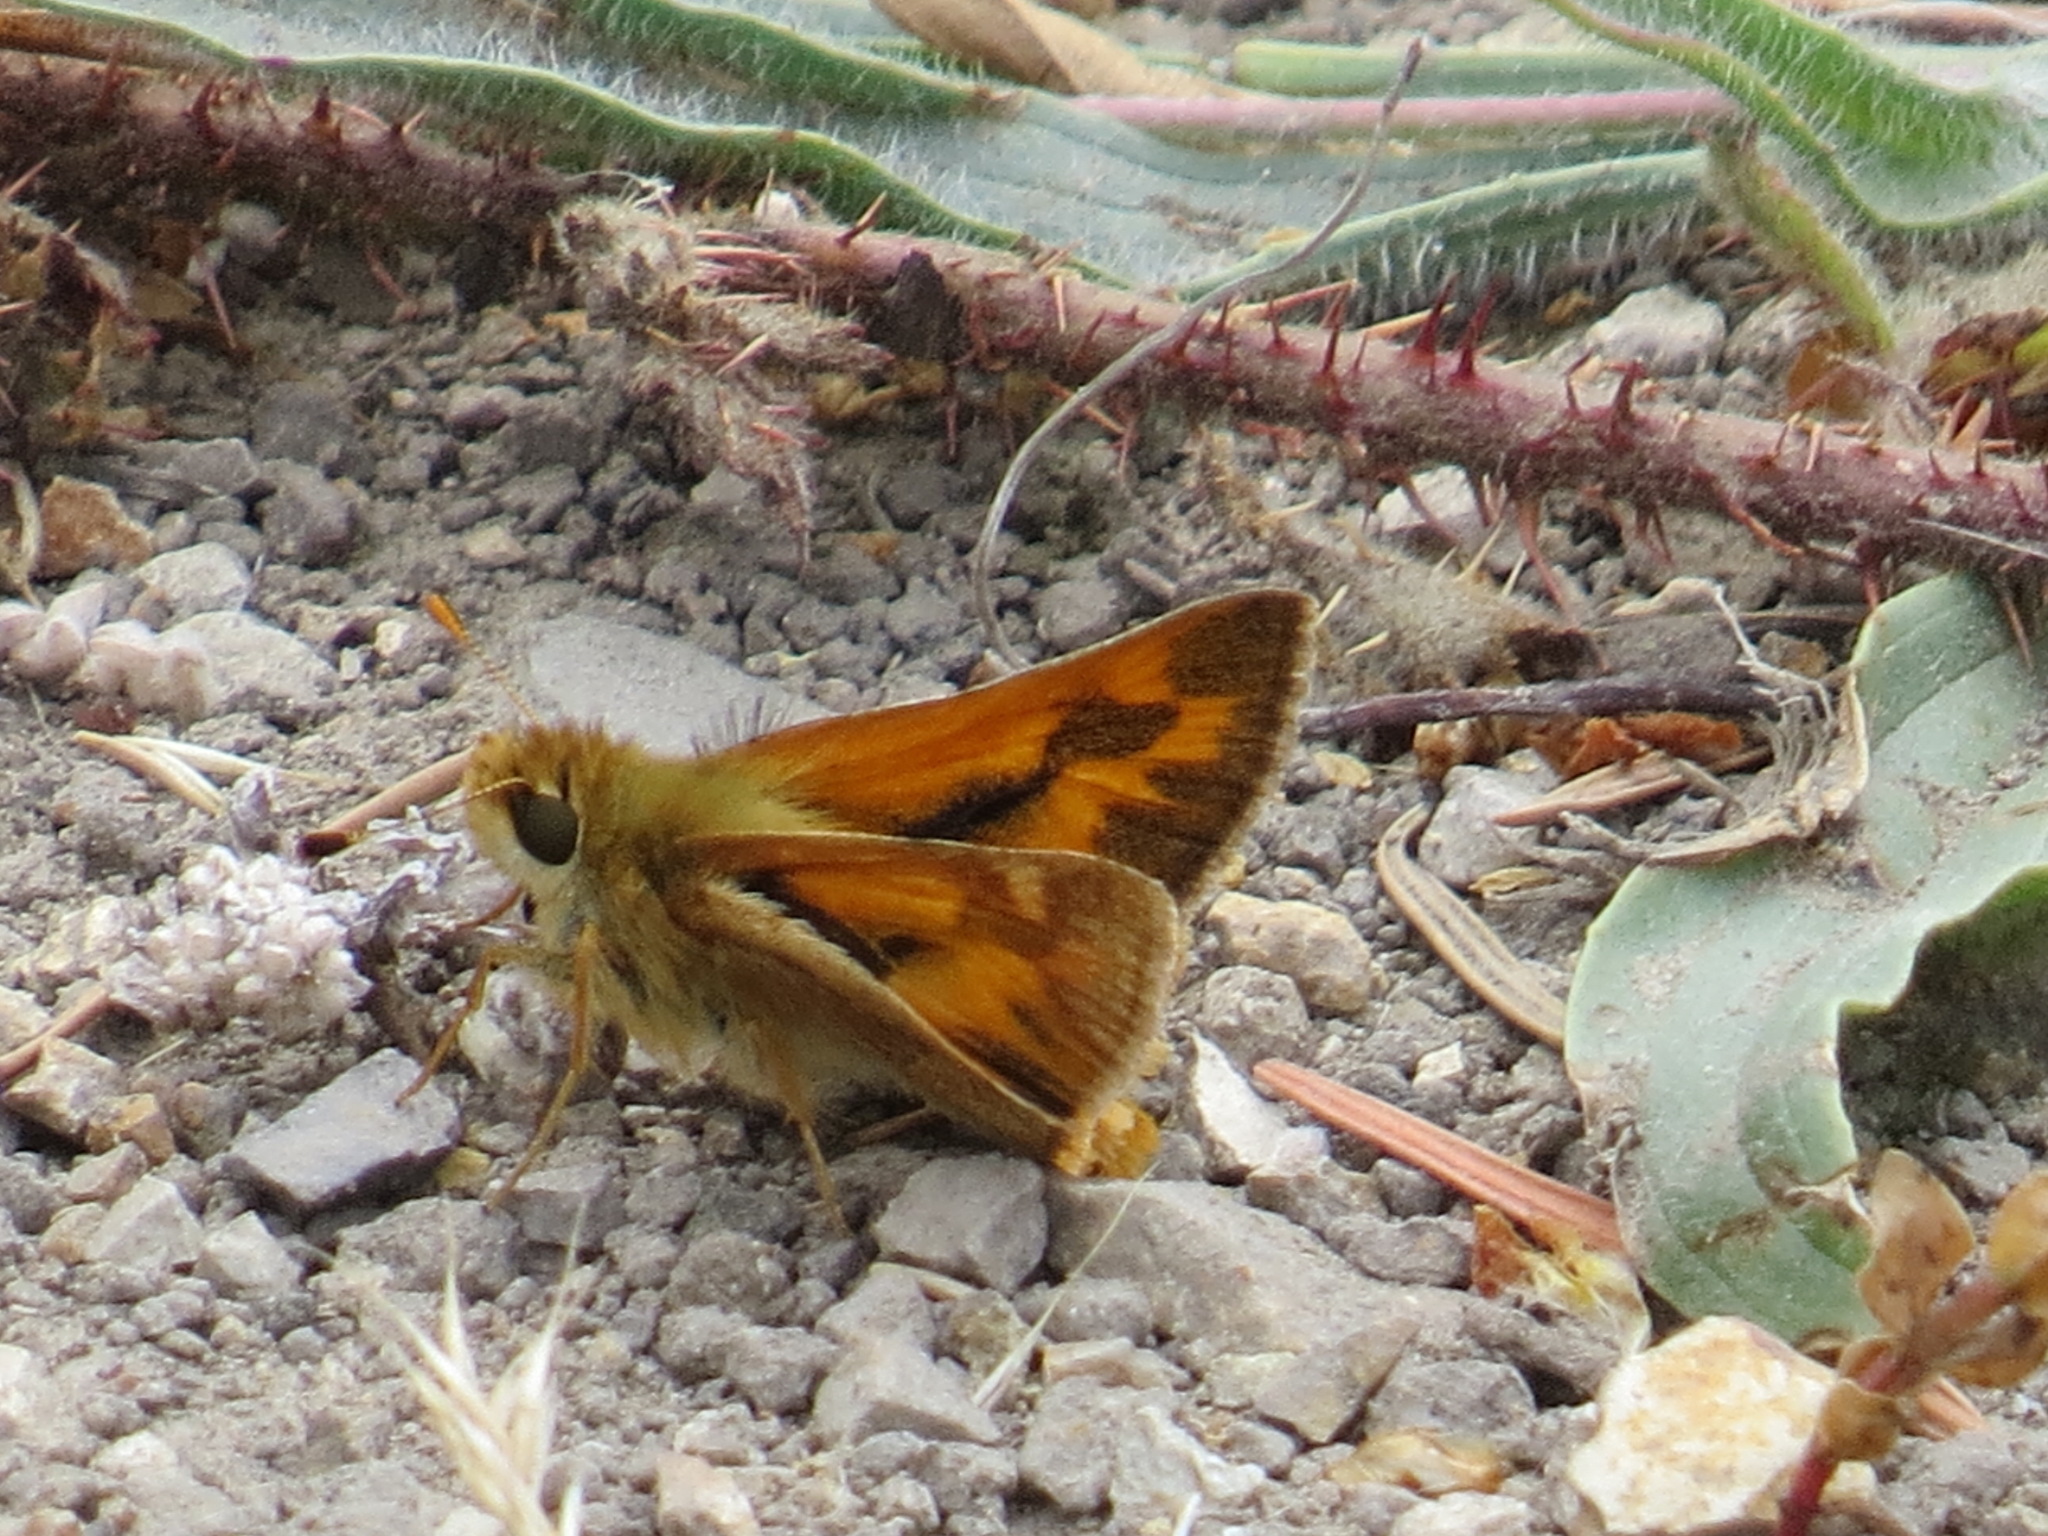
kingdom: Animalia
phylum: Arthropoda
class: Insecta
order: Lepidoptera
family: Hesperiidae
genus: Ochlodes
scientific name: Ochlodes sylvanoides
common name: Woodland skipper
